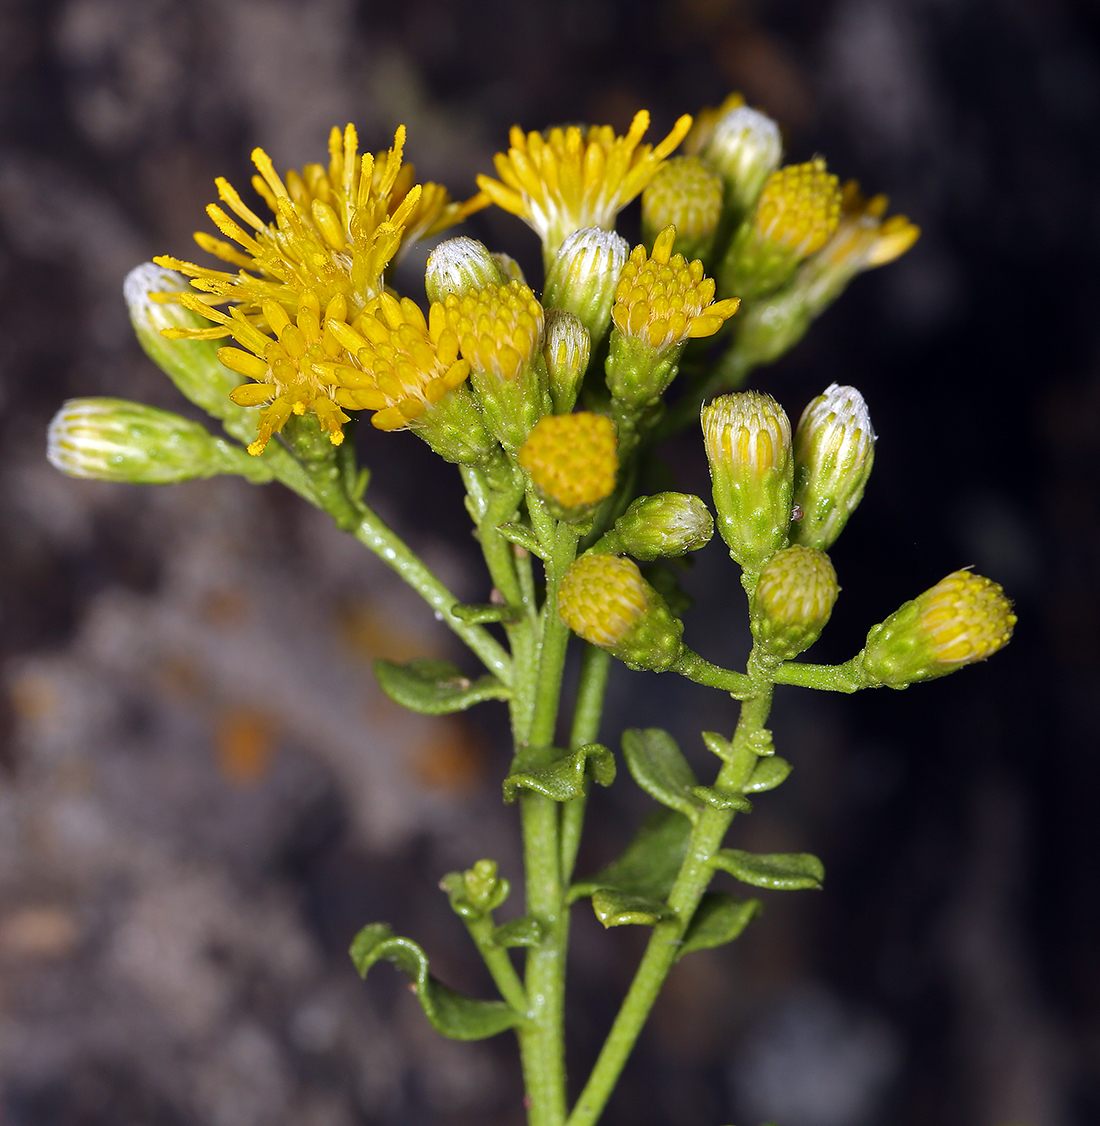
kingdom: Plantae
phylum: Tracheophyta
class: Magnoliopsida
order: Asterales
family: Asteraceae
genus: Ericameria
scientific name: Ericameria cuneata
